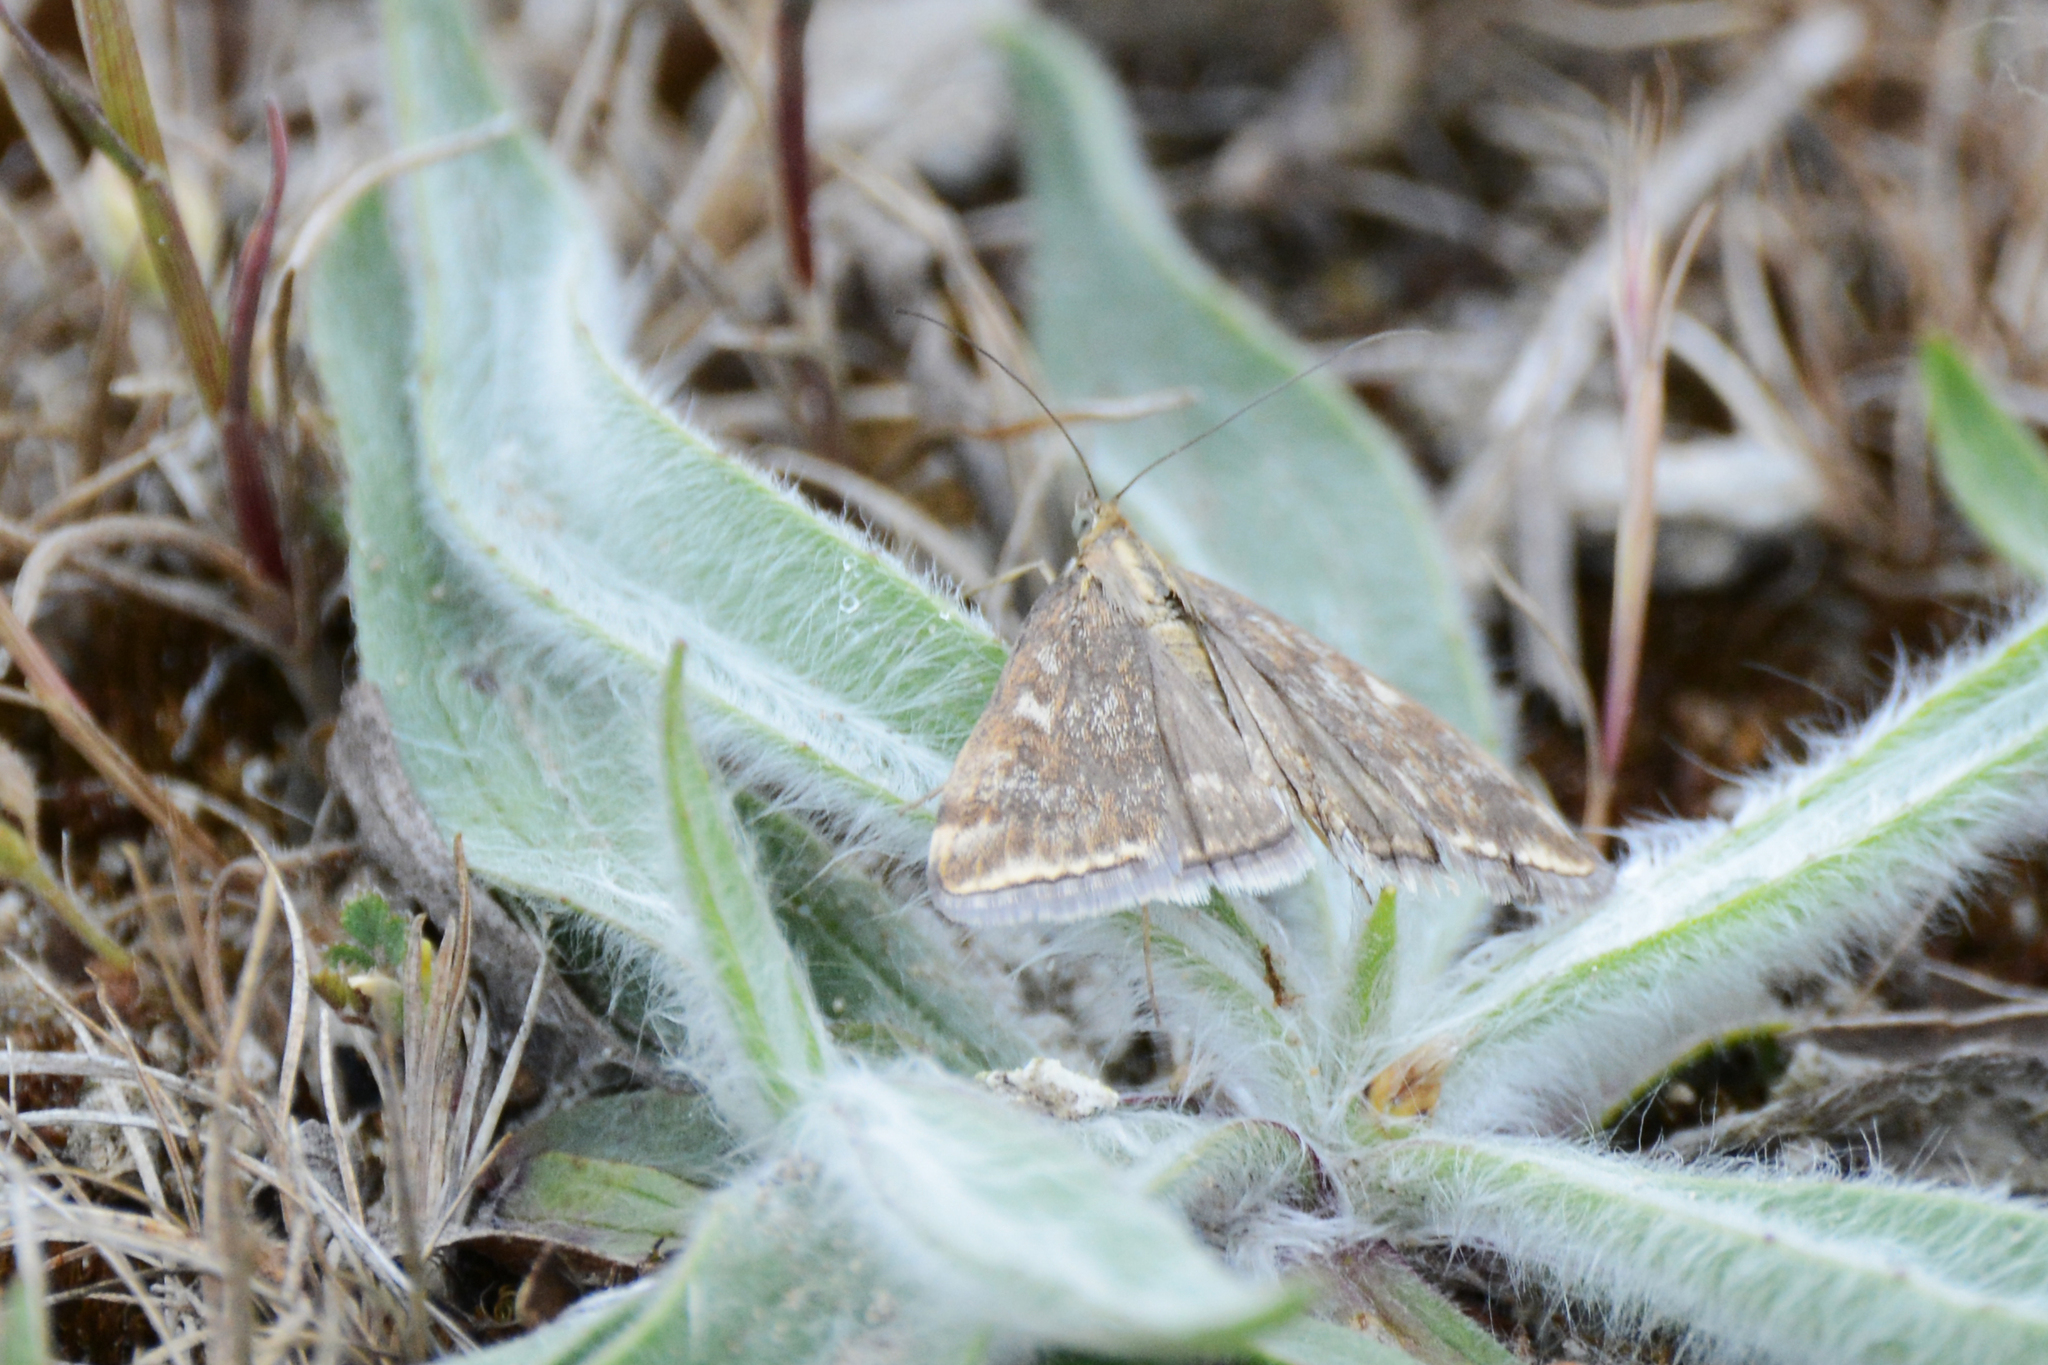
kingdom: Animalia
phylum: Arthropoda
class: Insecta
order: Lepidoptera
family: Crambidae
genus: Loxostege
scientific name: Loxostege sticticalis
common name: Crambid moth
